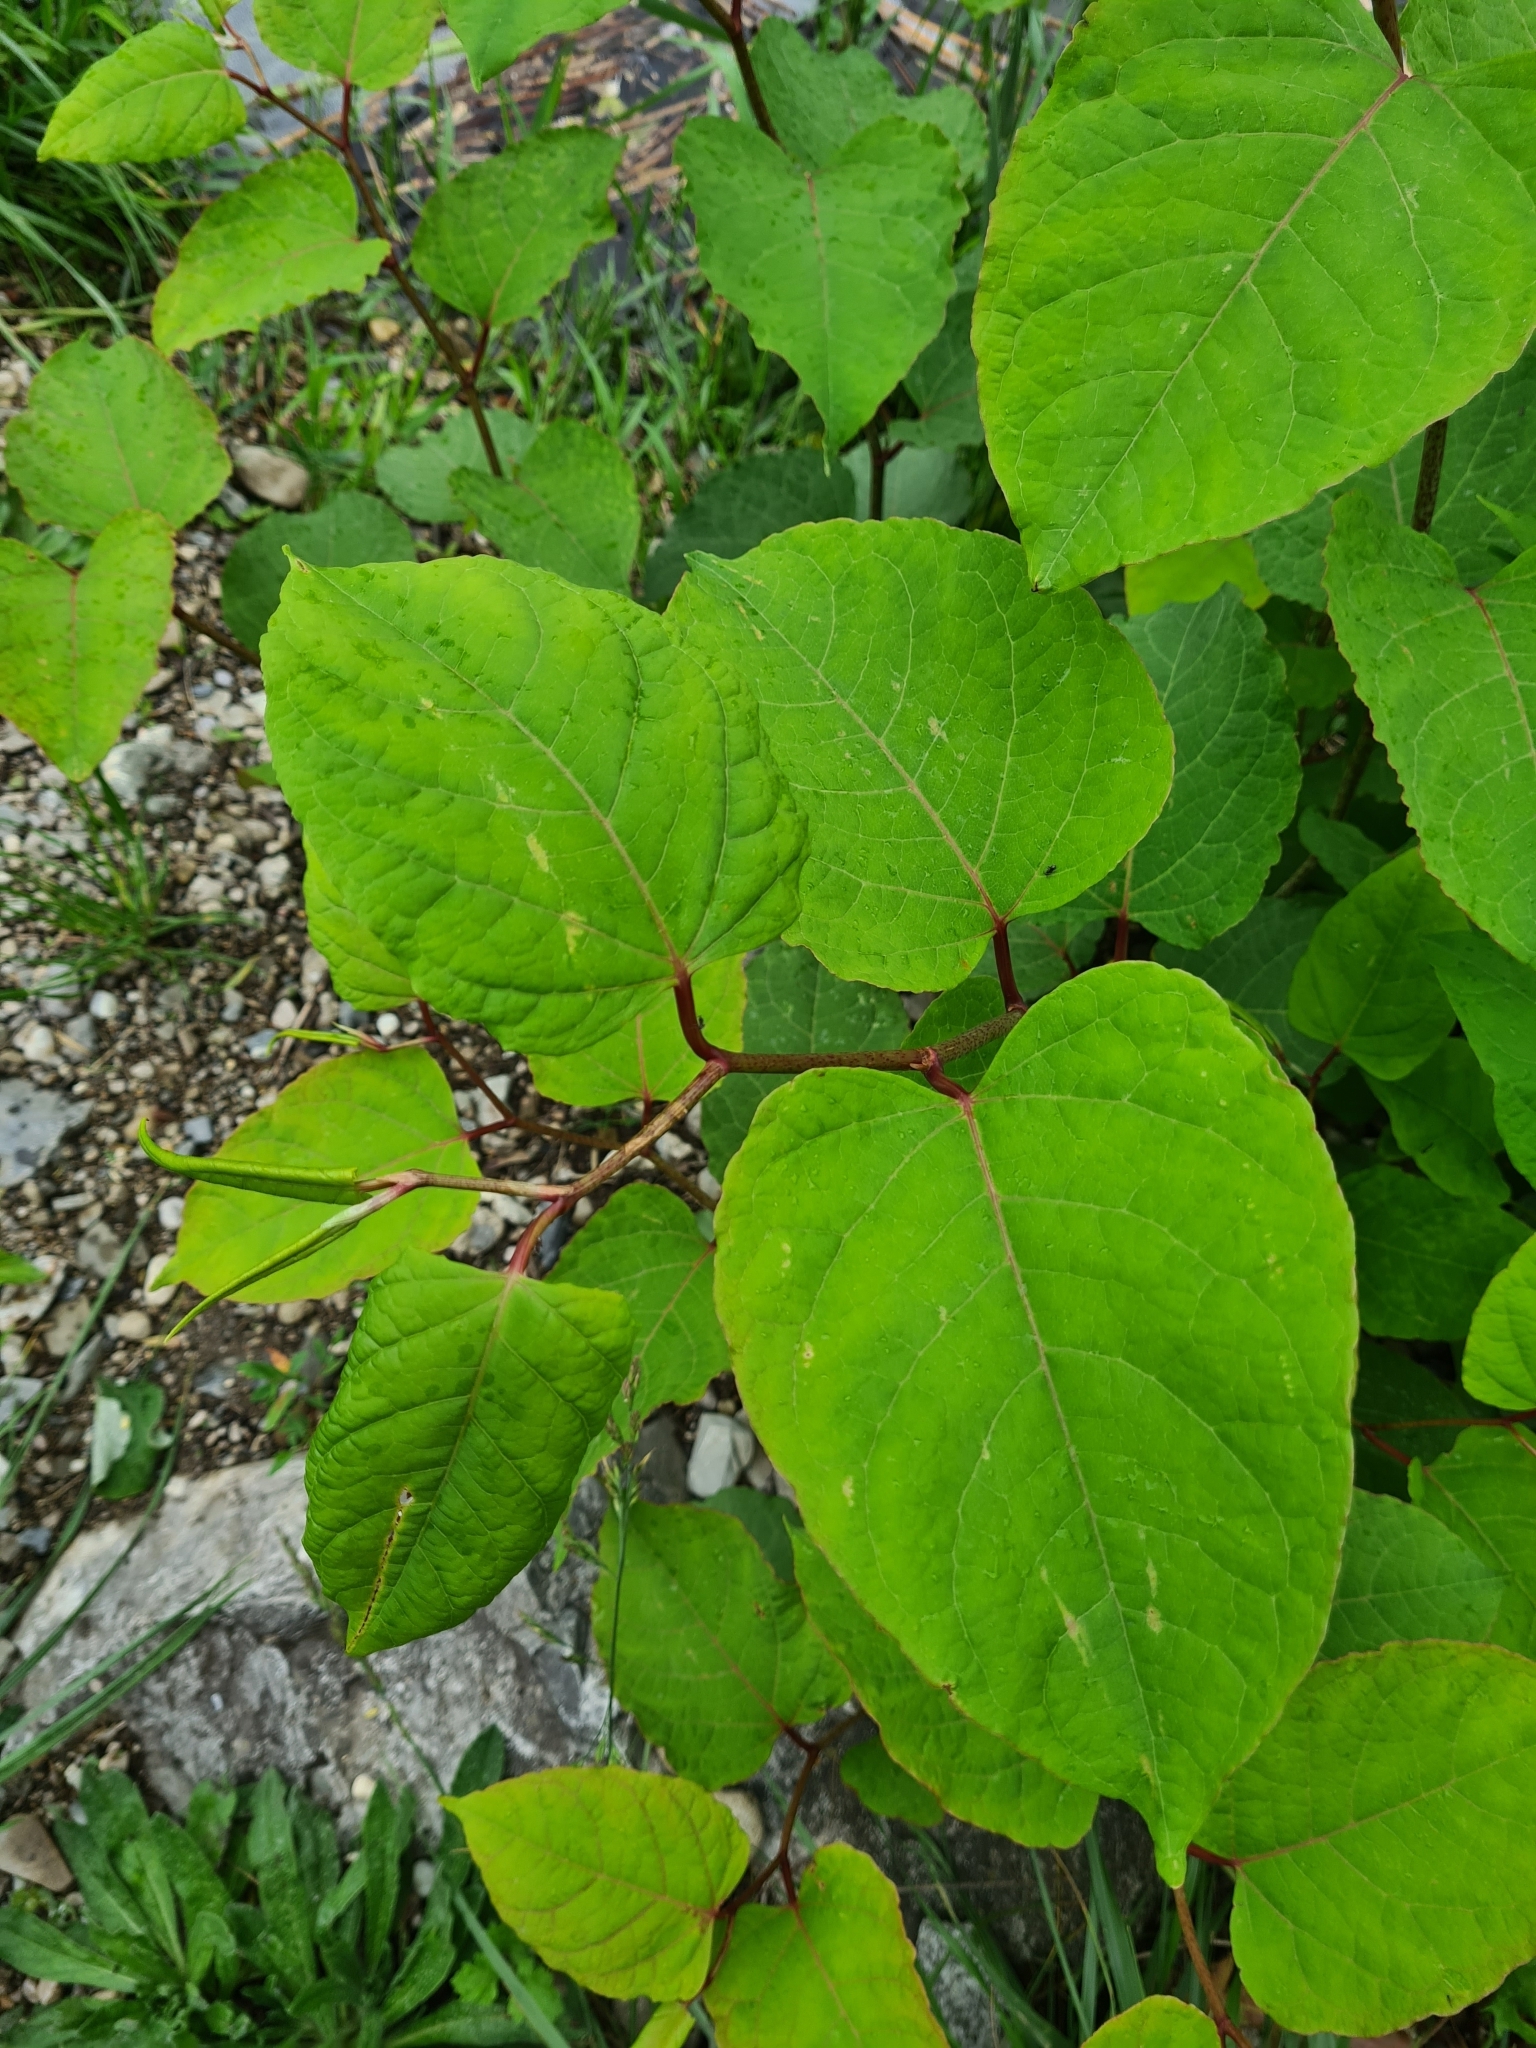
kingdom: Plantae
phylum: Tracheophyta
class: Magnoliopsida
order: Caryophyllales
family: Polygonaceae
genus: Reynoutria
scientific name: Reynoutria bohemica
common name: Bohemian knotweed
